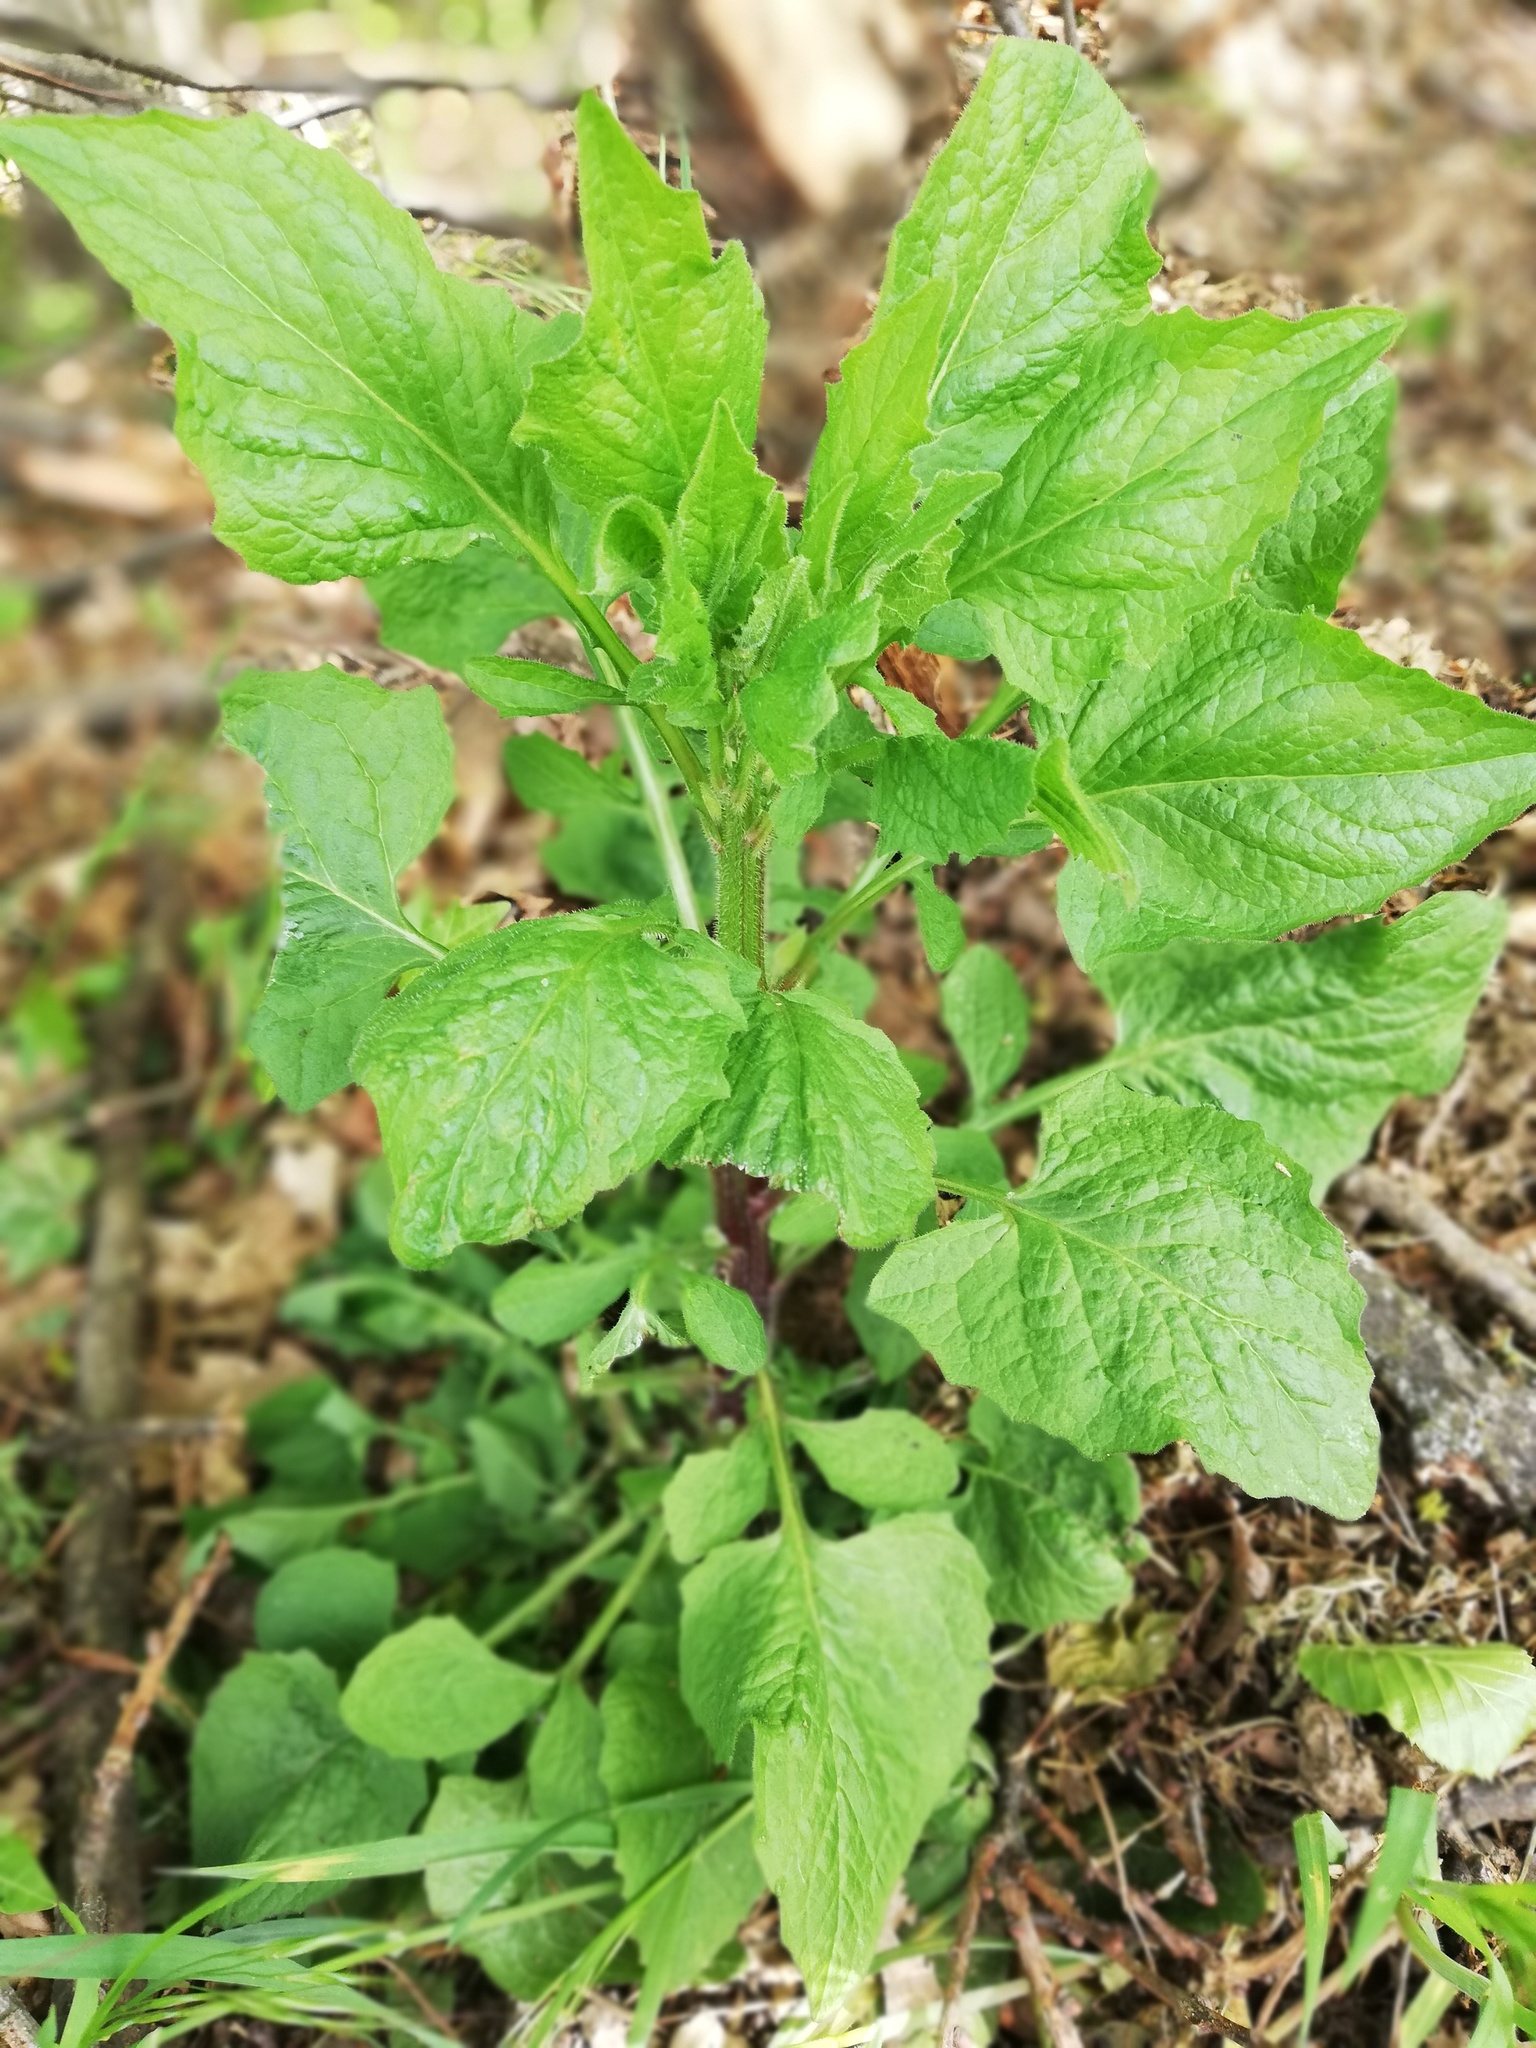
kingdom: Plantae
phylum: Tracheophyta
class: Magnoliopsida
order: Asterales
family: Asteraceae
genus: Lapsana
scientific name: Lapsana communis
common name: Nipplewort
